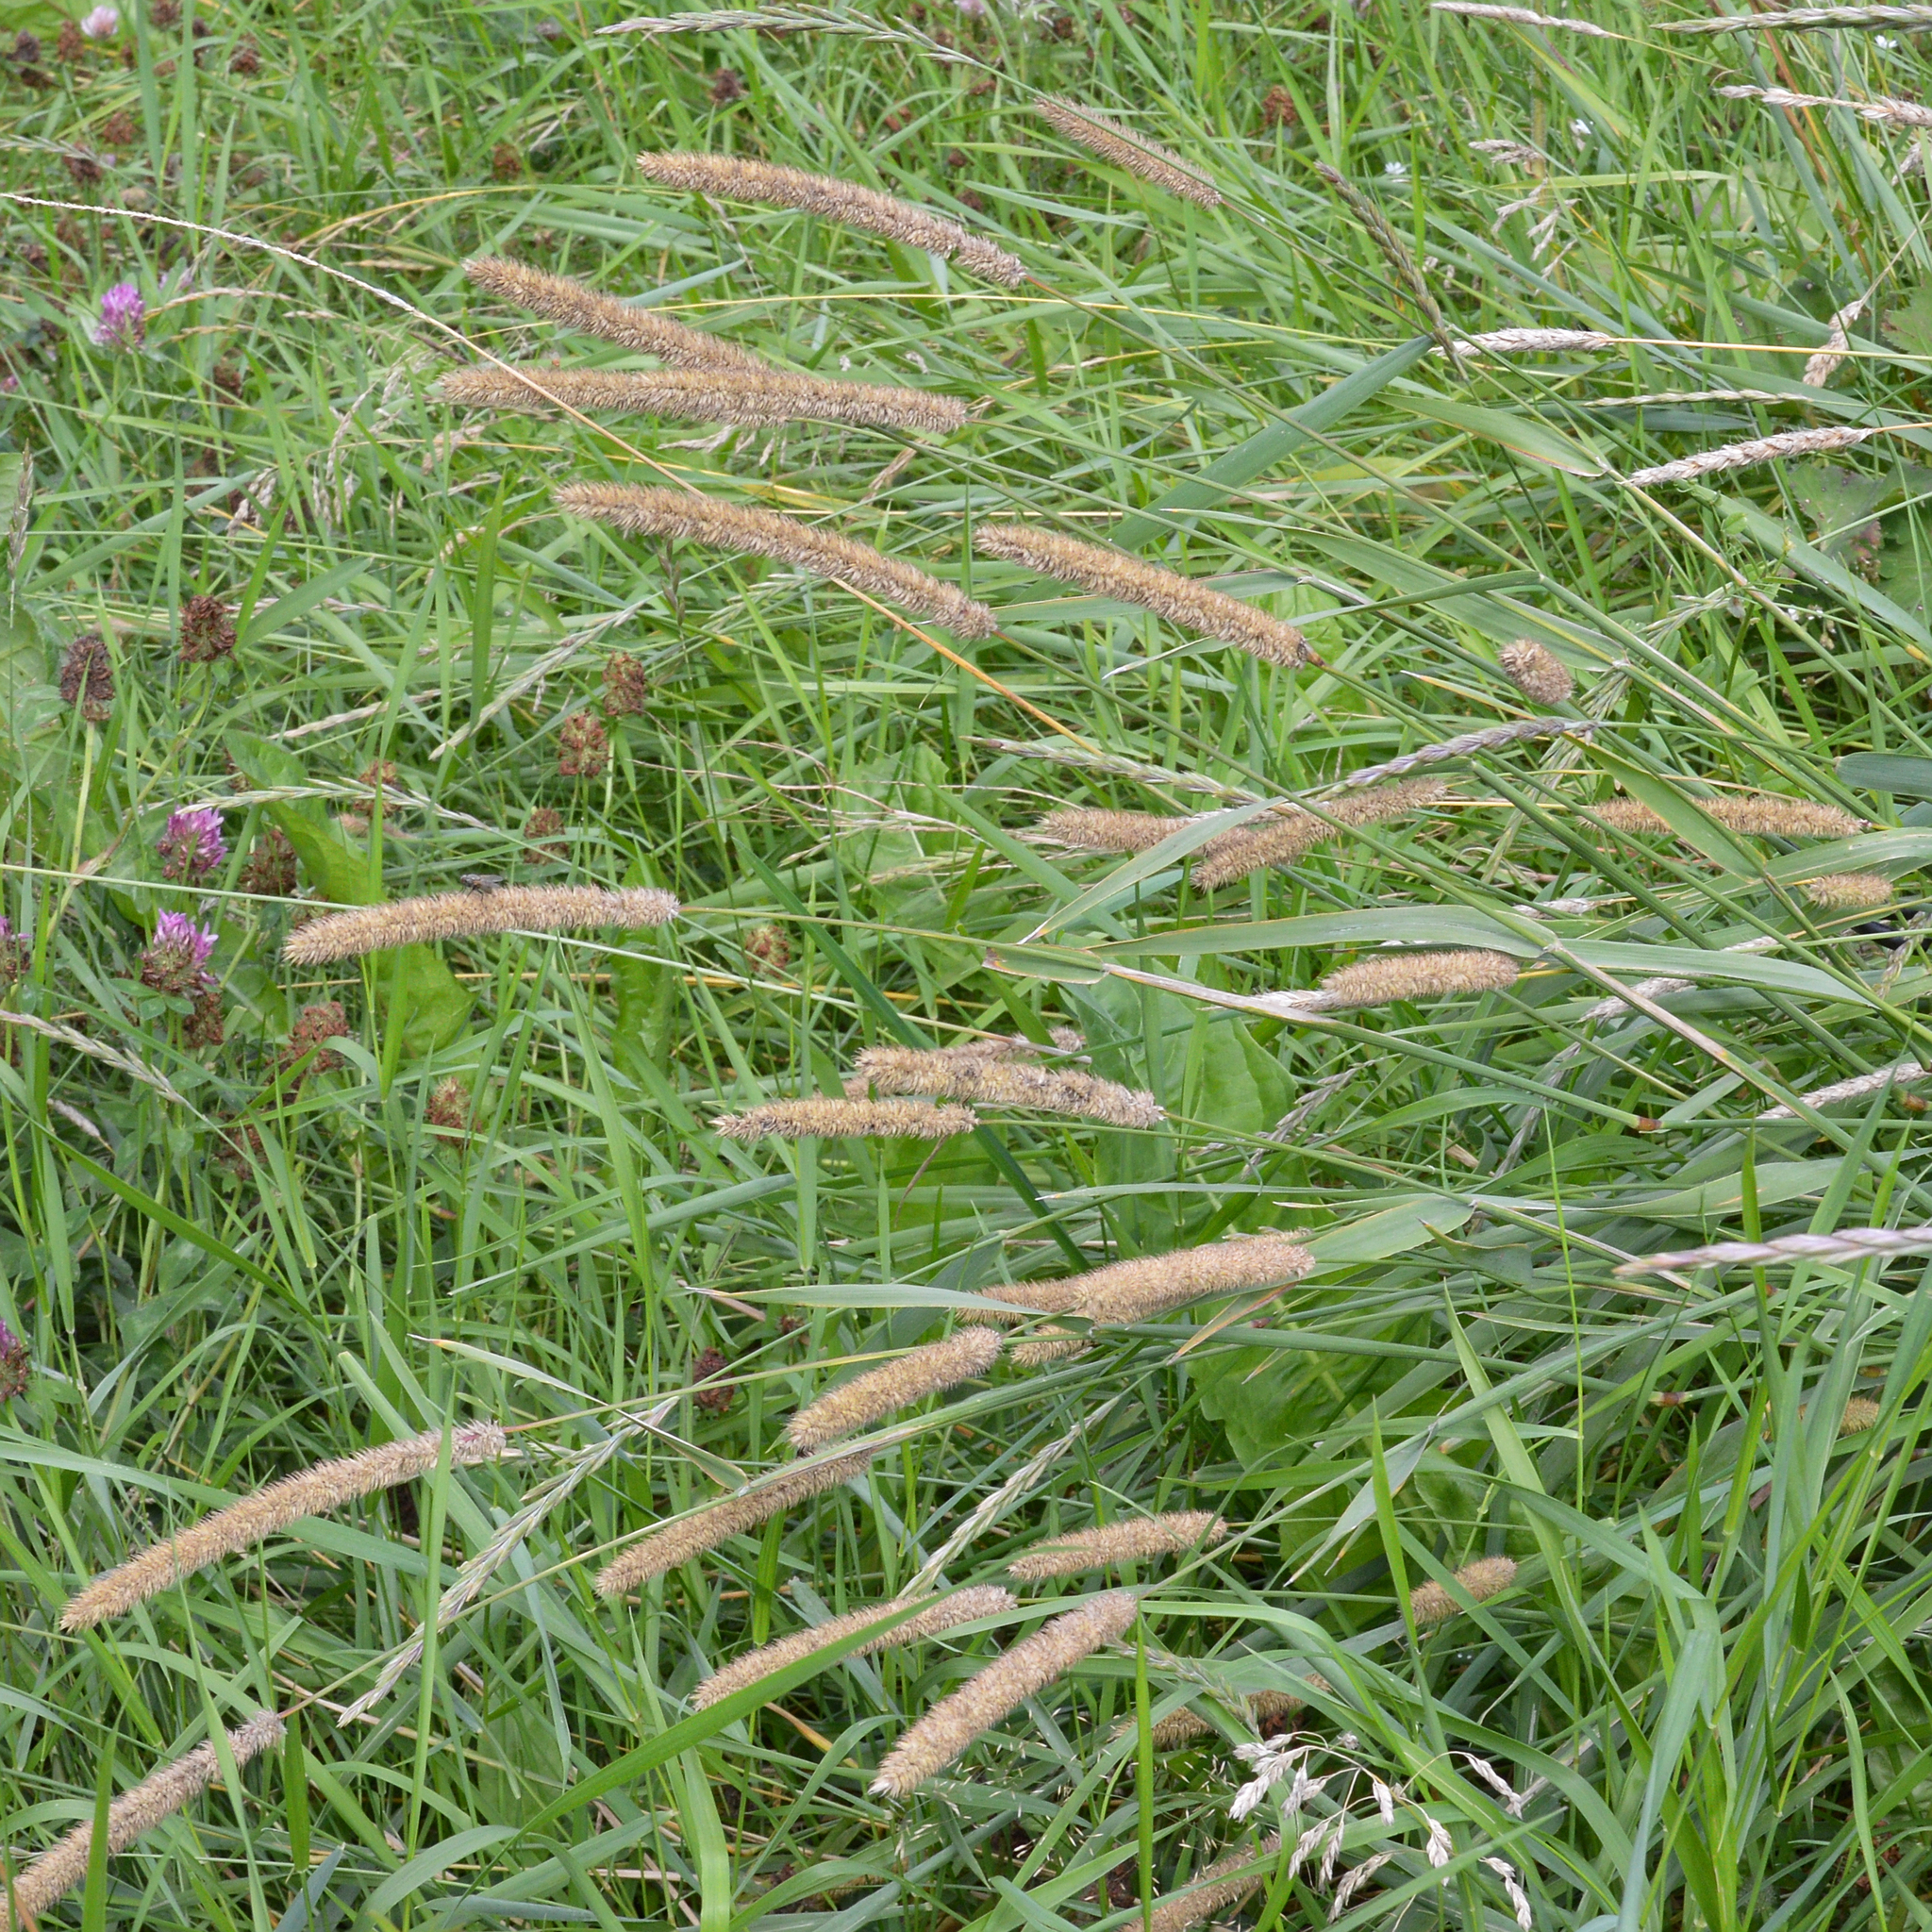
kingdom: Plantae
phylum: Tracheophyta
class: Liliopsida
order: Poales
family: Poaceae
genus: Phleum
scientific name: Phleum pratense
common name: Timothy grass
